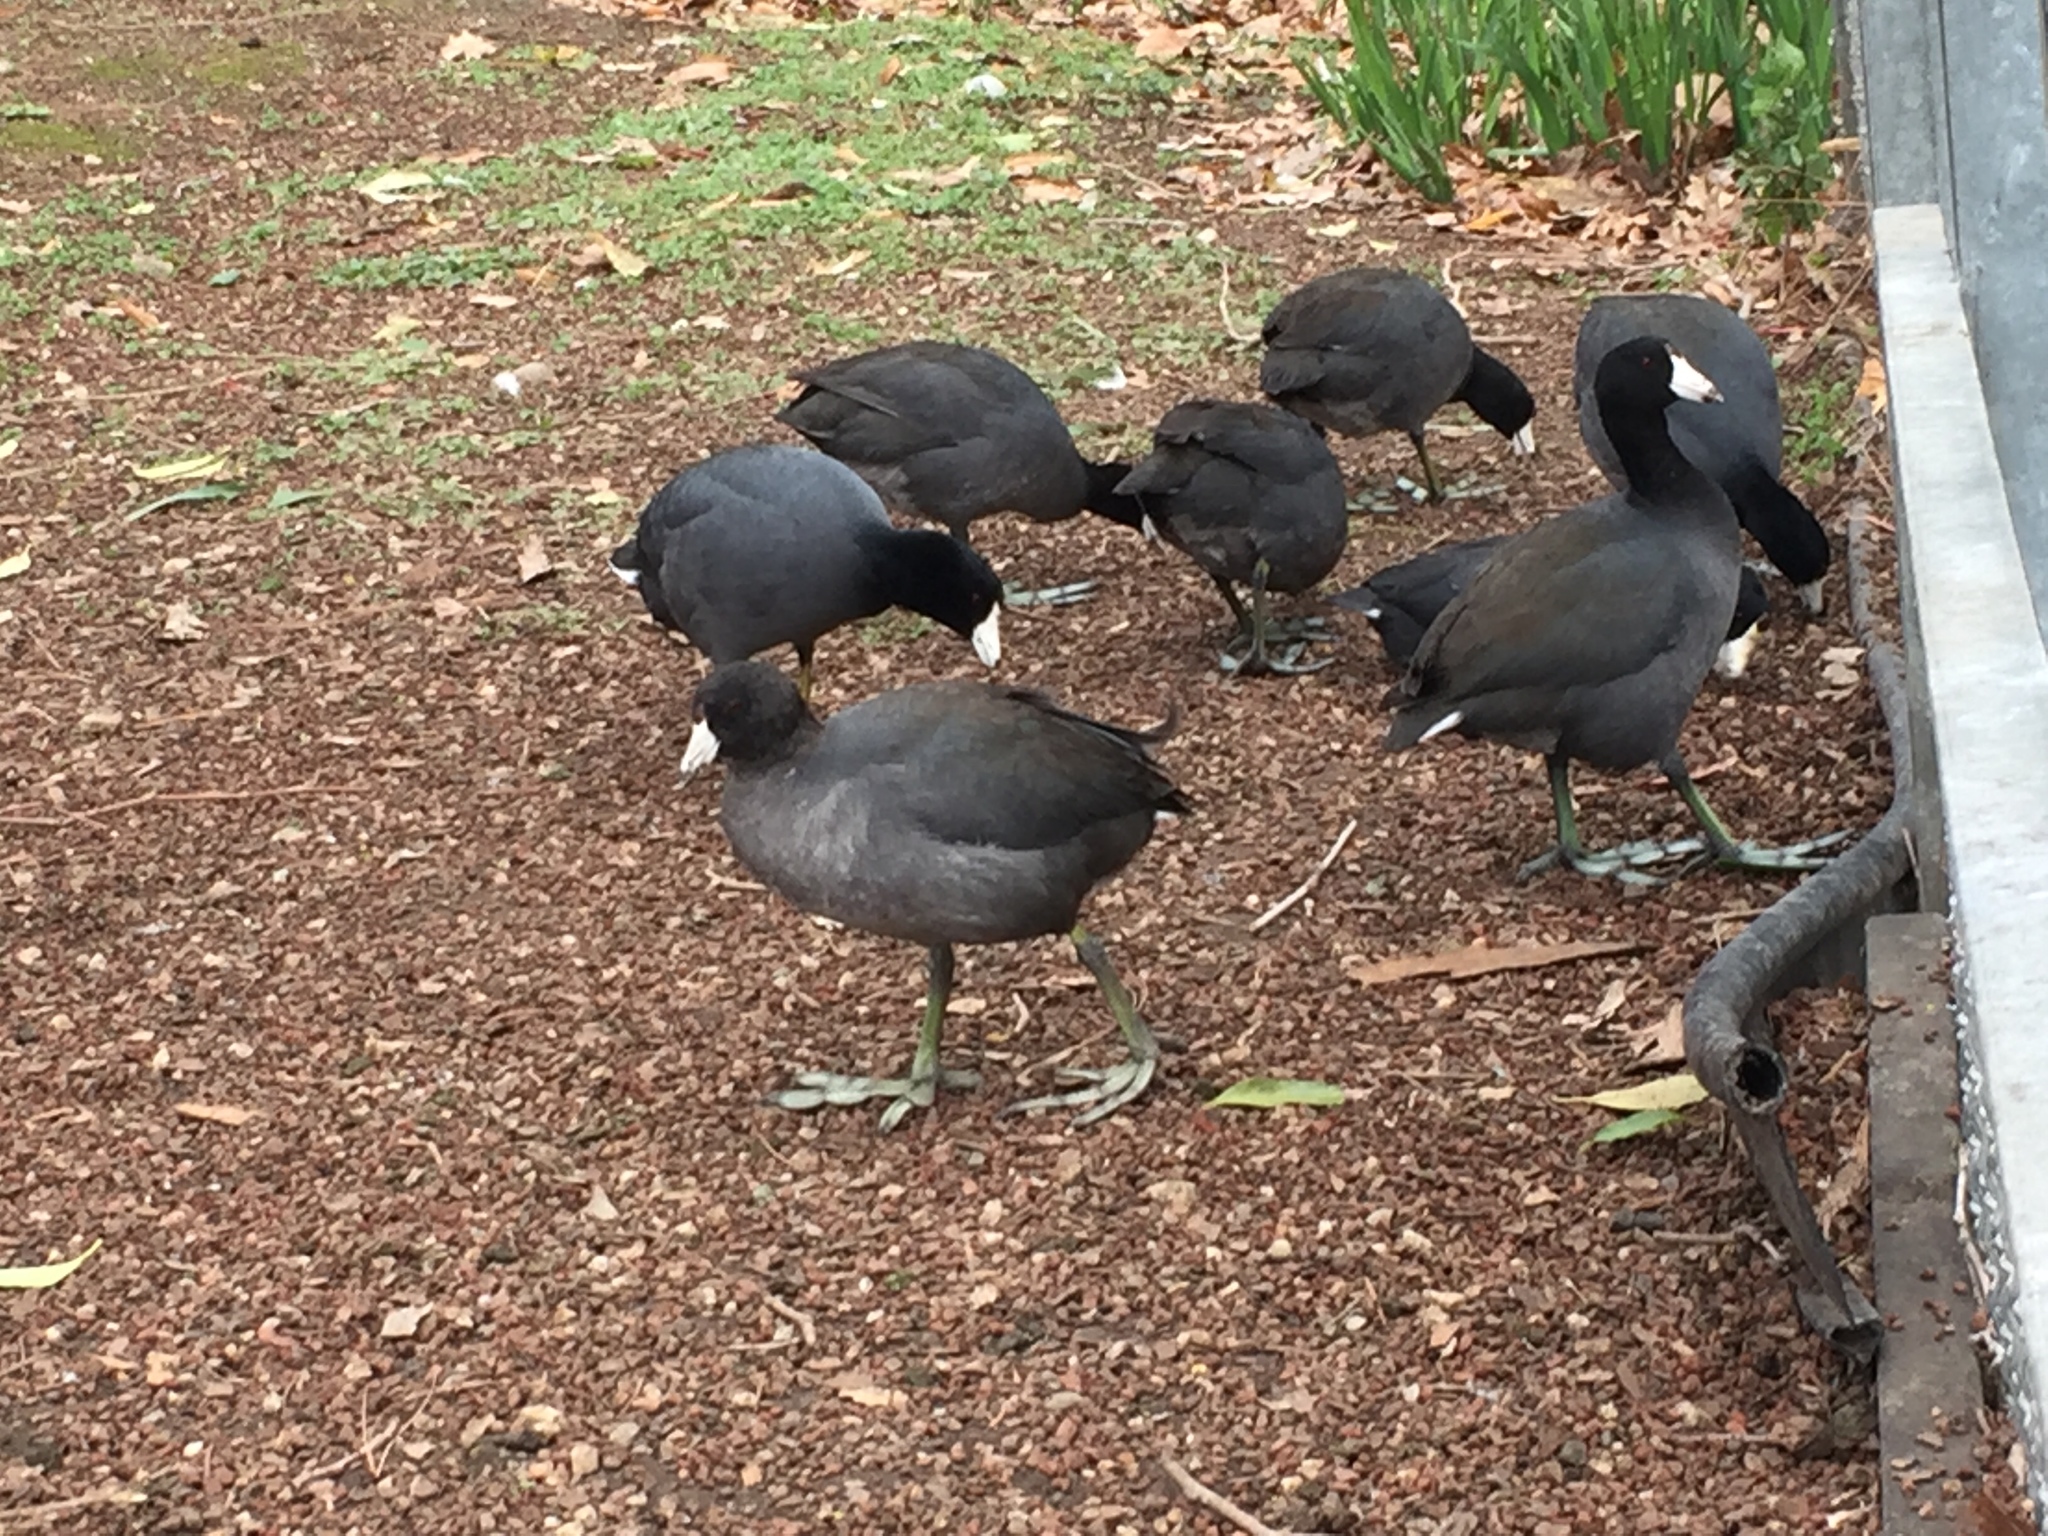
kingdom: Animalia
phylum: Chordata
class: Aves
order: Gruiformes
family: Rallidae
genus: Fulica
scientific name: Fulica americana
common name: American coot
